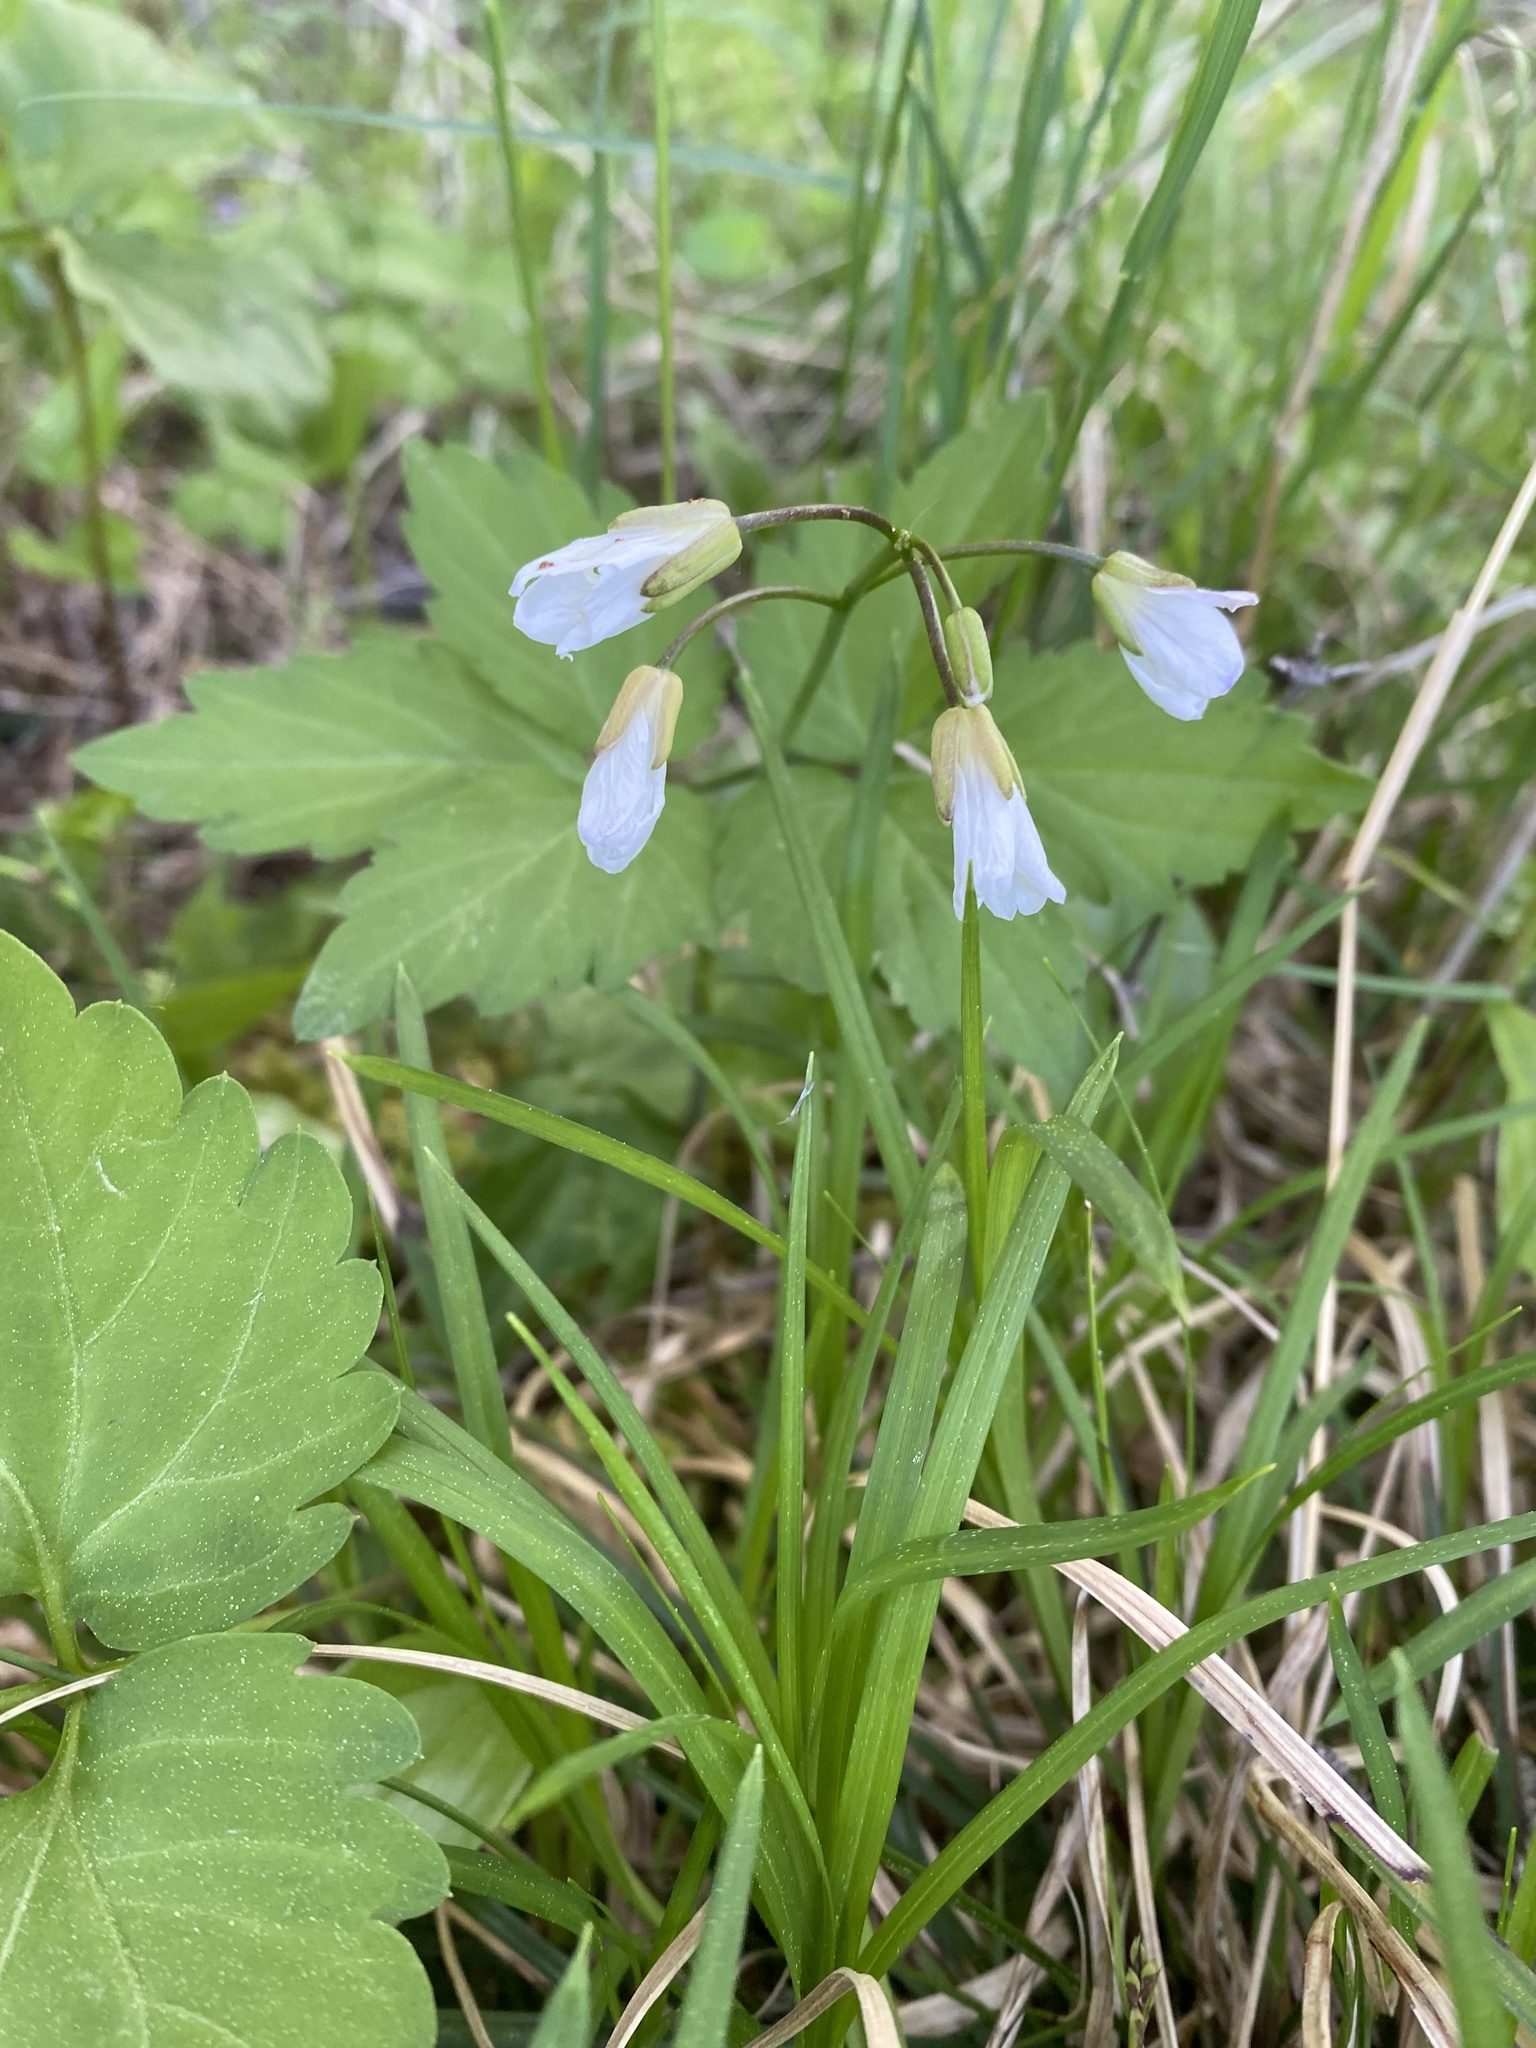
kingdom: Plantae
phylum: Tracheophyta
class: Magnoliopsida
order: Brassicales
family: Brassicaceae
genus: Cardamine
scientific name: Cardamine diphylla
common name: Broad-leaved toothwort
